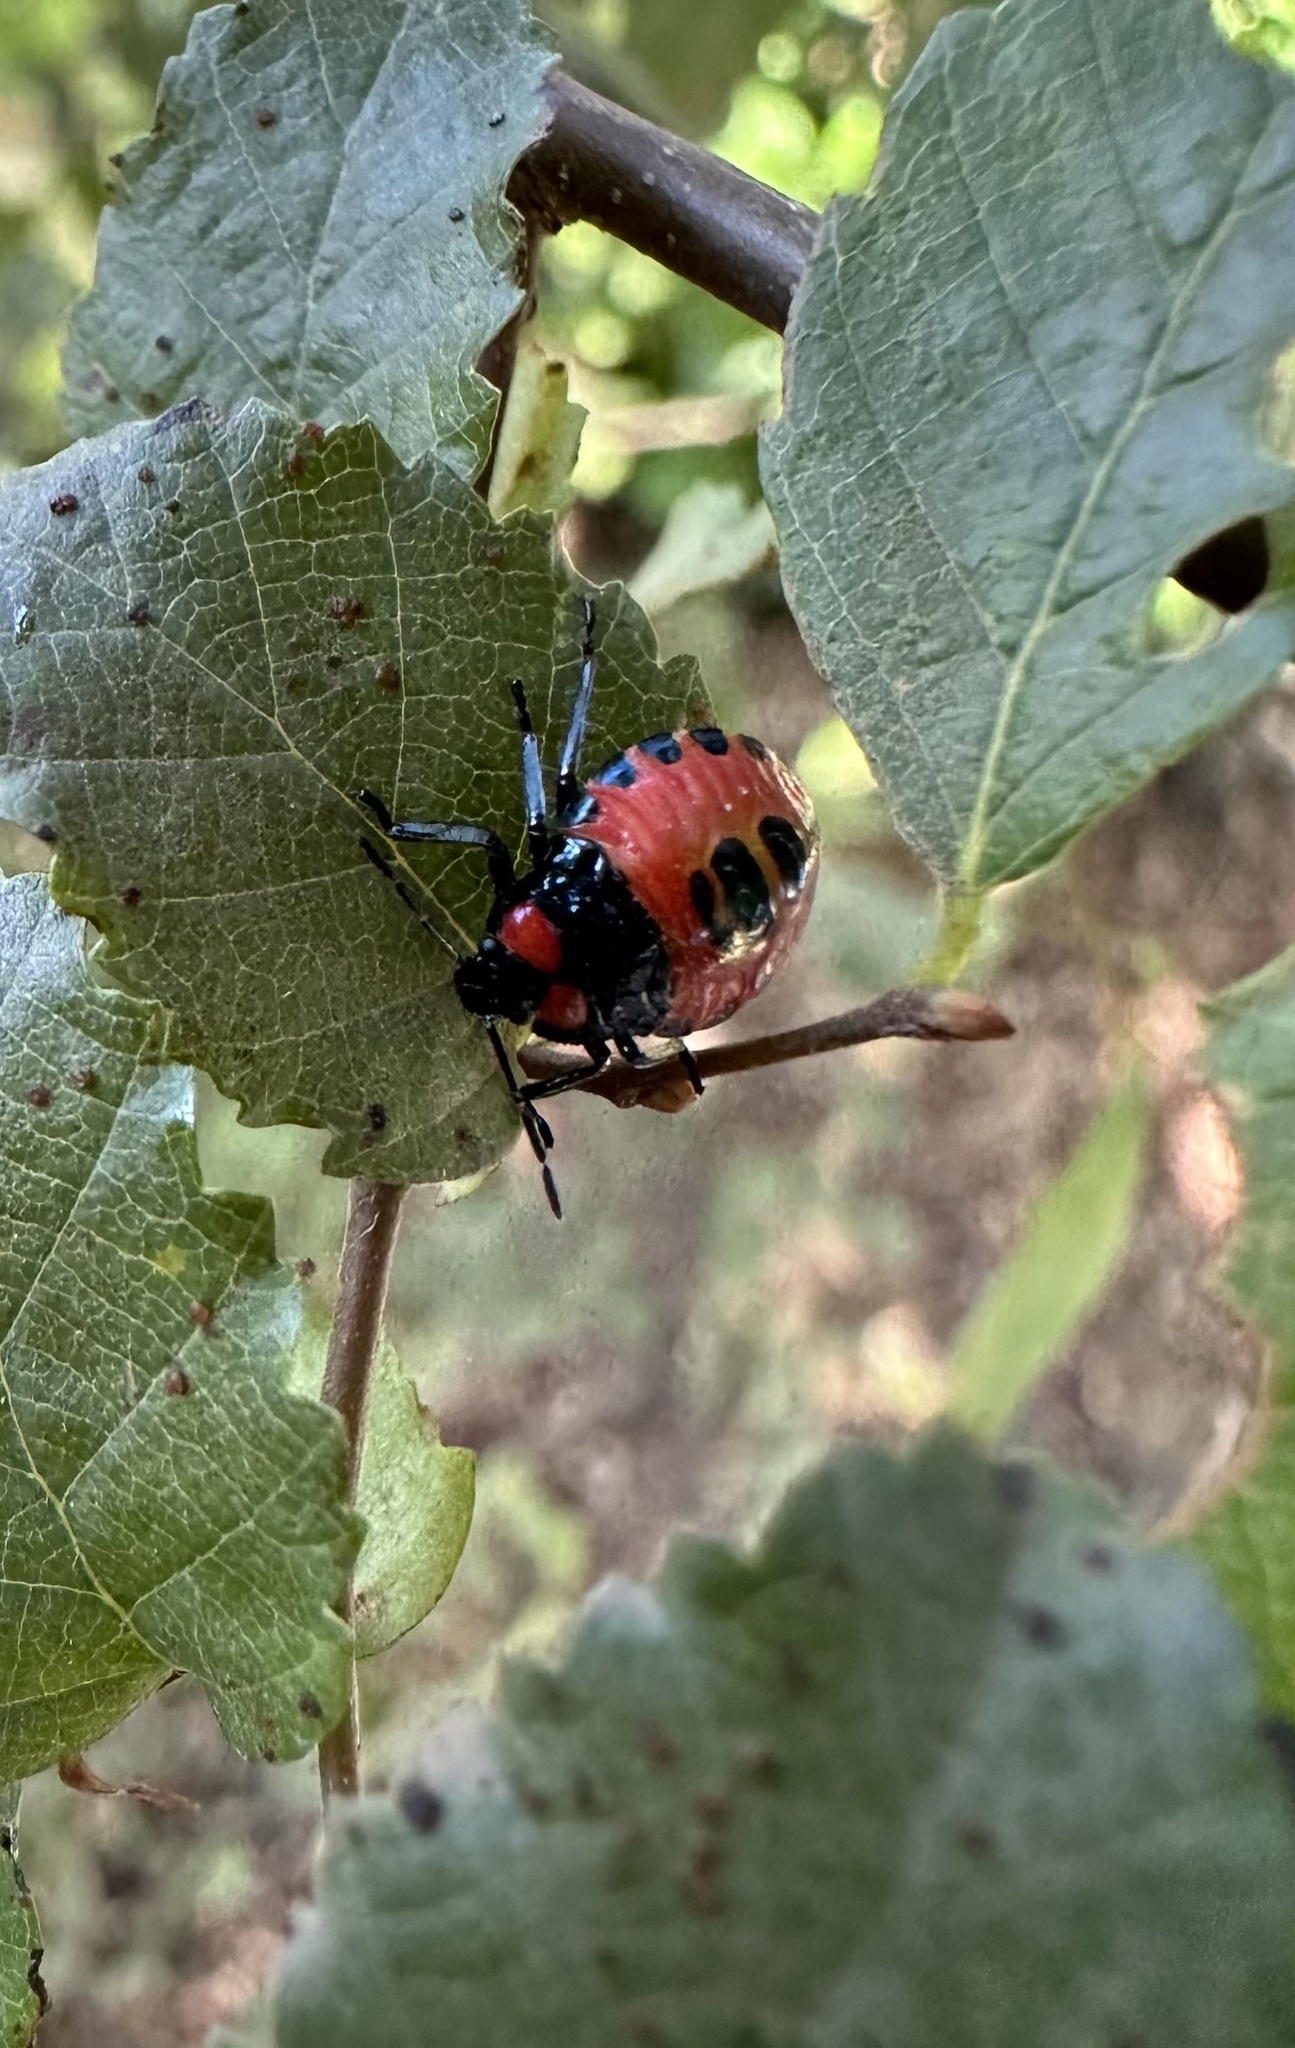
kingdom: Animalia
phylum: Arthropoda
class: Insecta
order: Hemiptera
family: Pentatomidae
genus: Brontocoris
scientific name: Brontocoris
